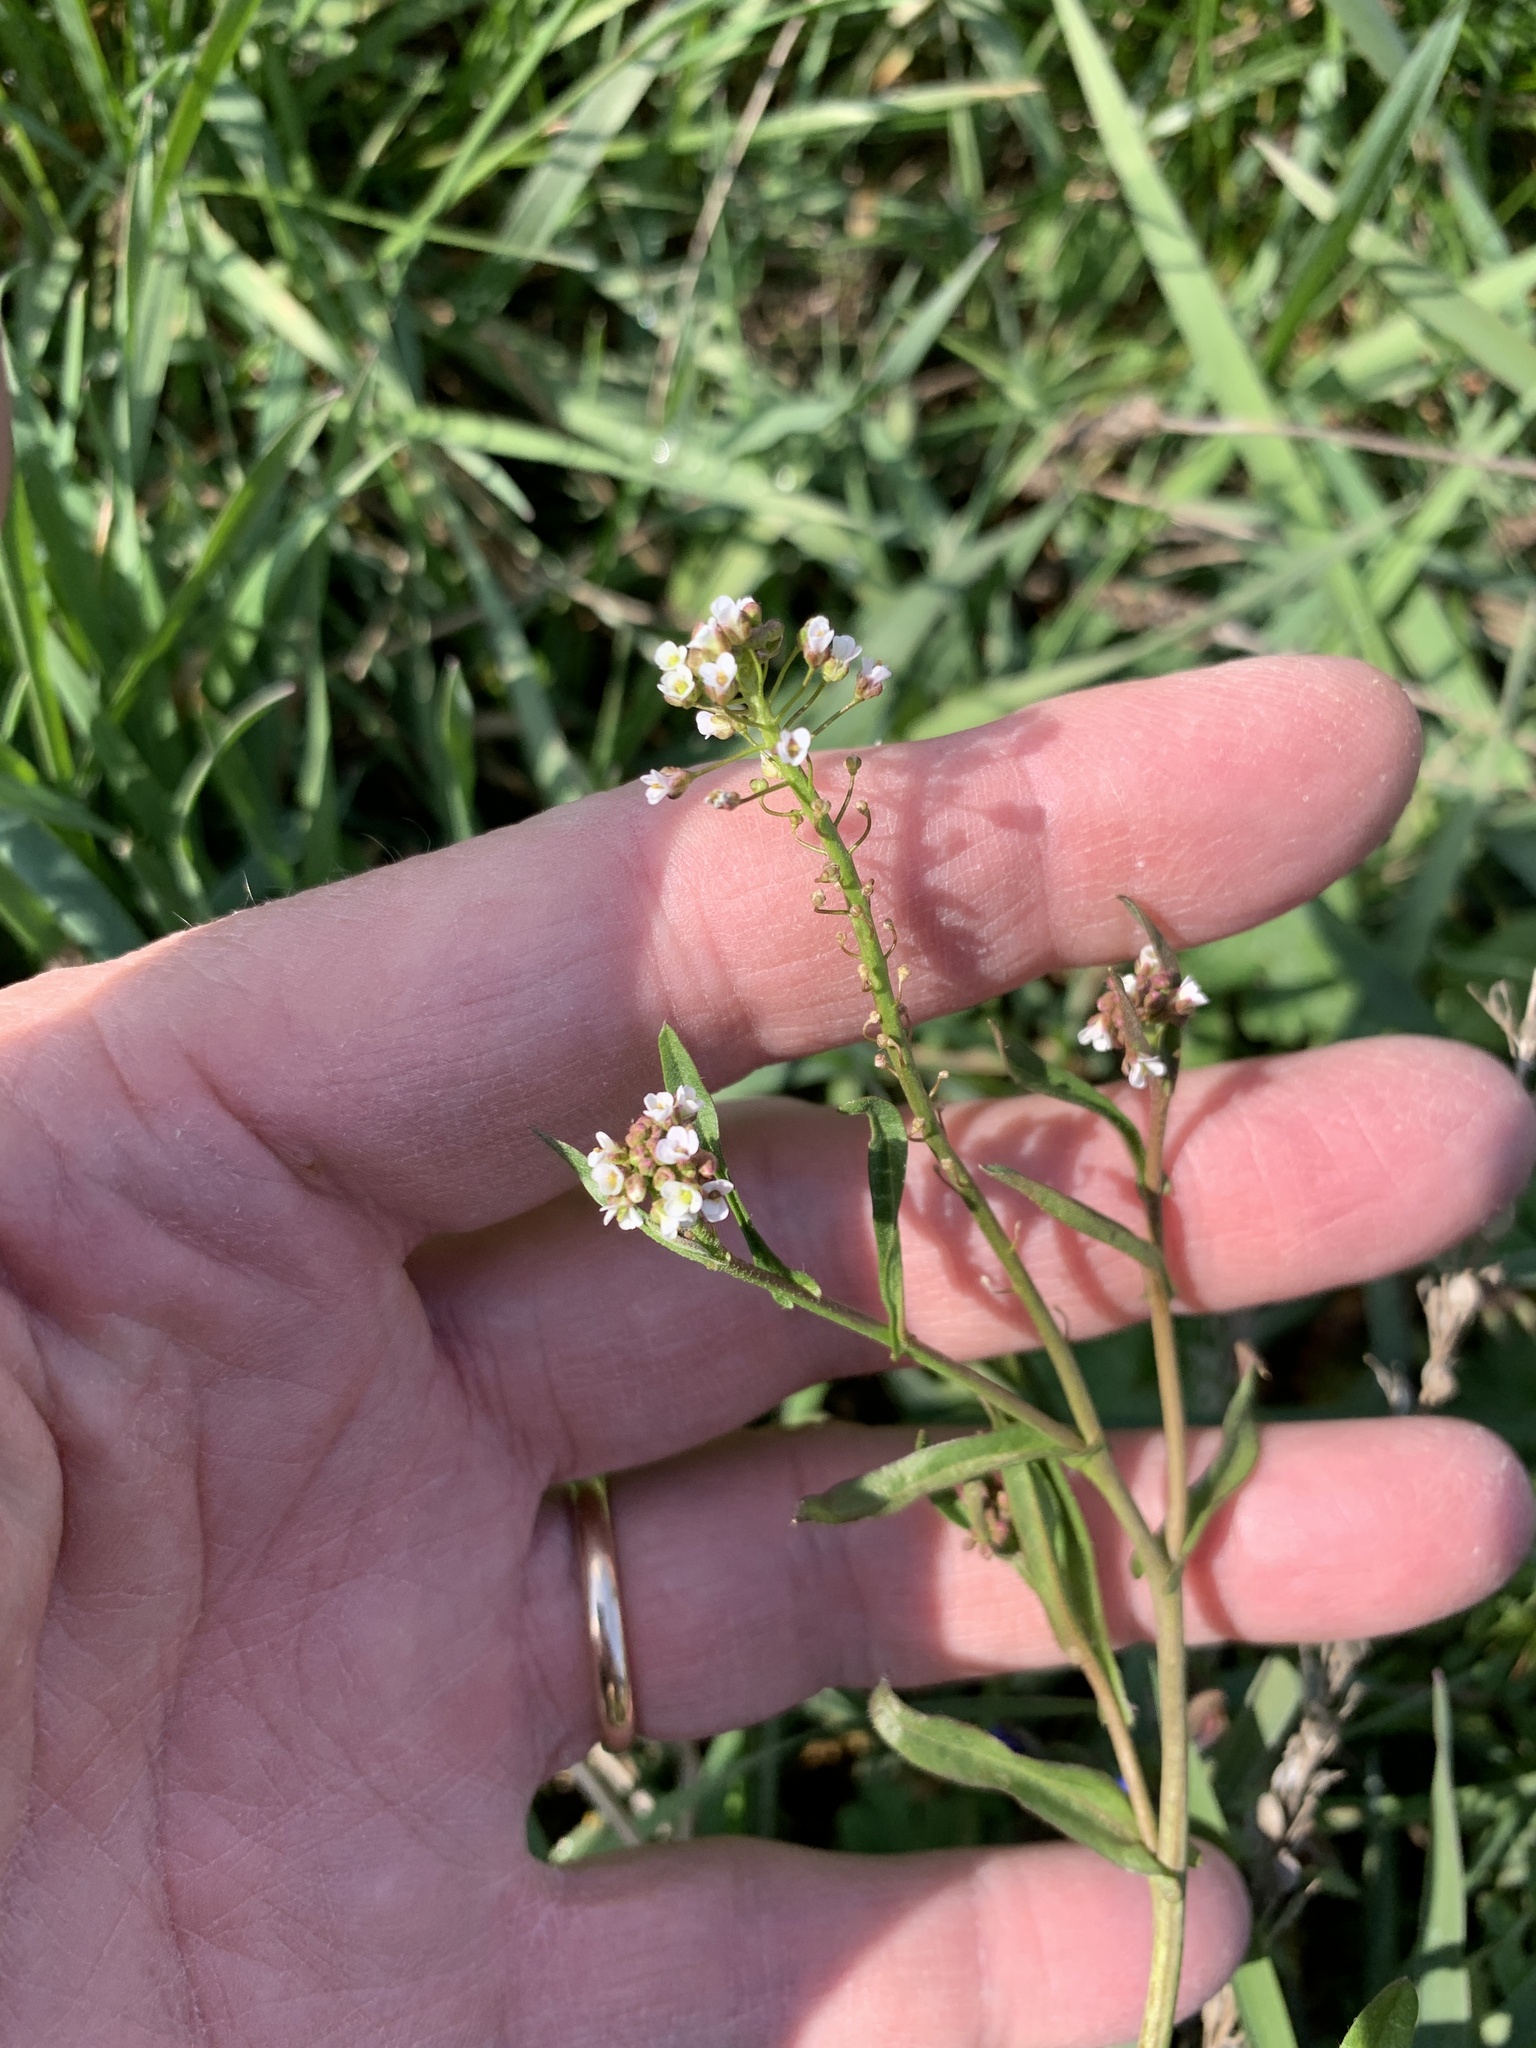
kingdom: Plantae
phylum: Tracheophyta
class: Magnoliopsida
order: Brassicales
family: Brassicaceae
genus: Capsella
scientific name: Capsella bursa-pastoris
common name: Shepherd's purse
